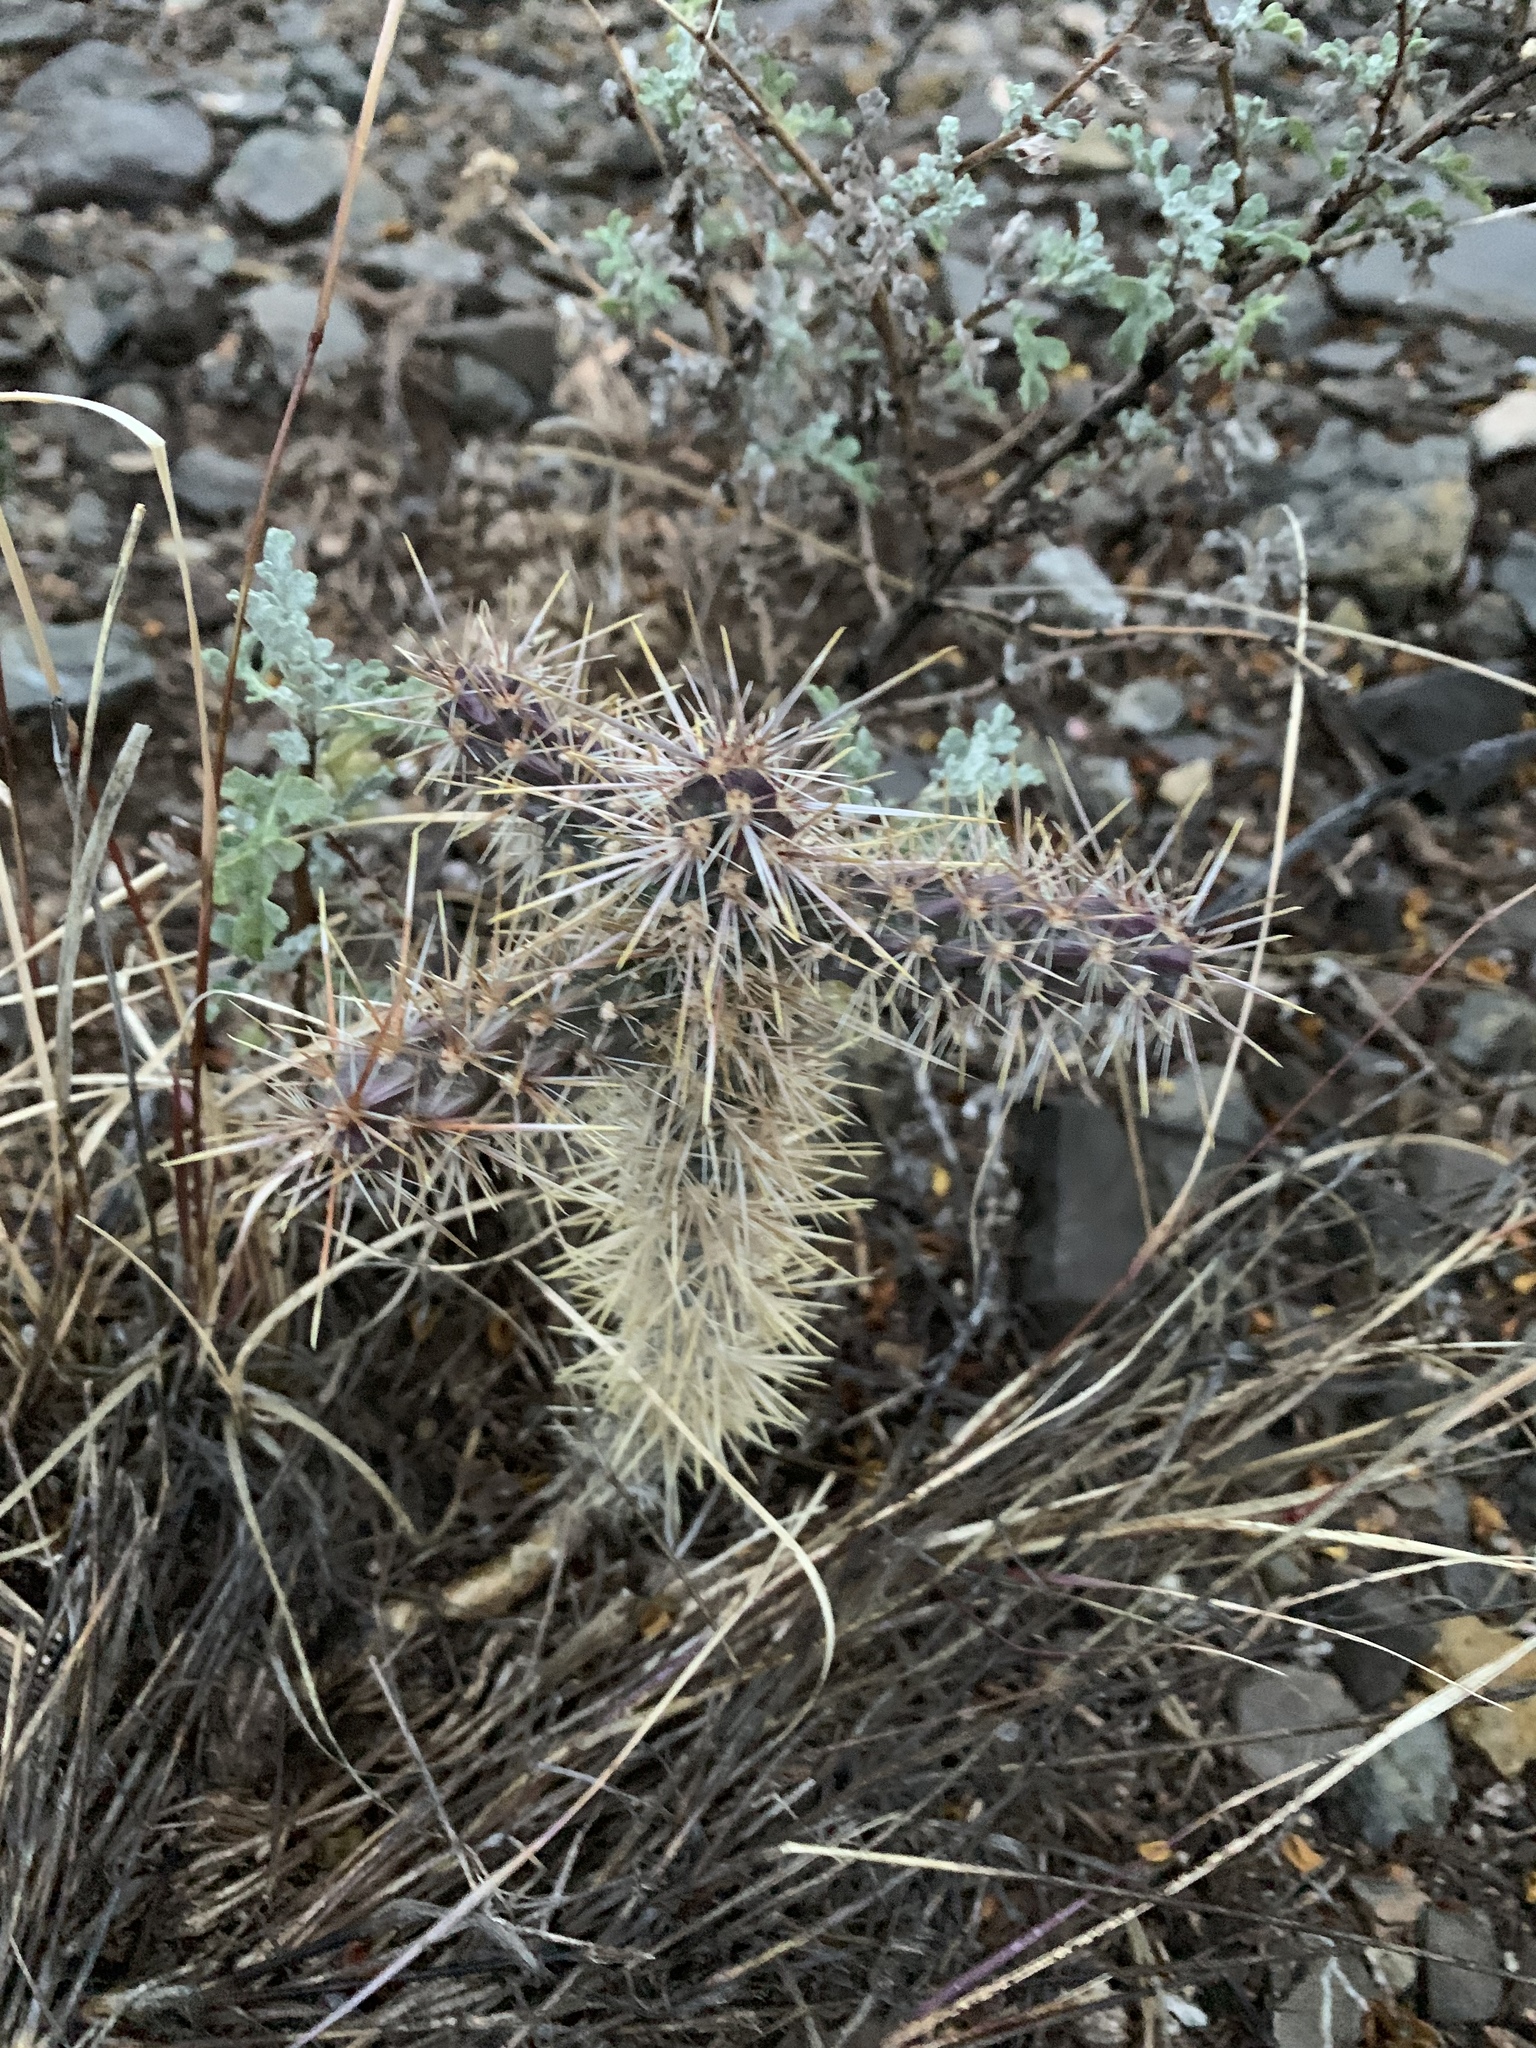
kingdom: Plantae
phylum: Tracheophyta
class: Magnoliopsida
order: Caryophyllales
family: Cactaceae
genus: Cylindropuntia
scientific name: Cylindropuntia imbricata
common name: Candelabrum cactus
